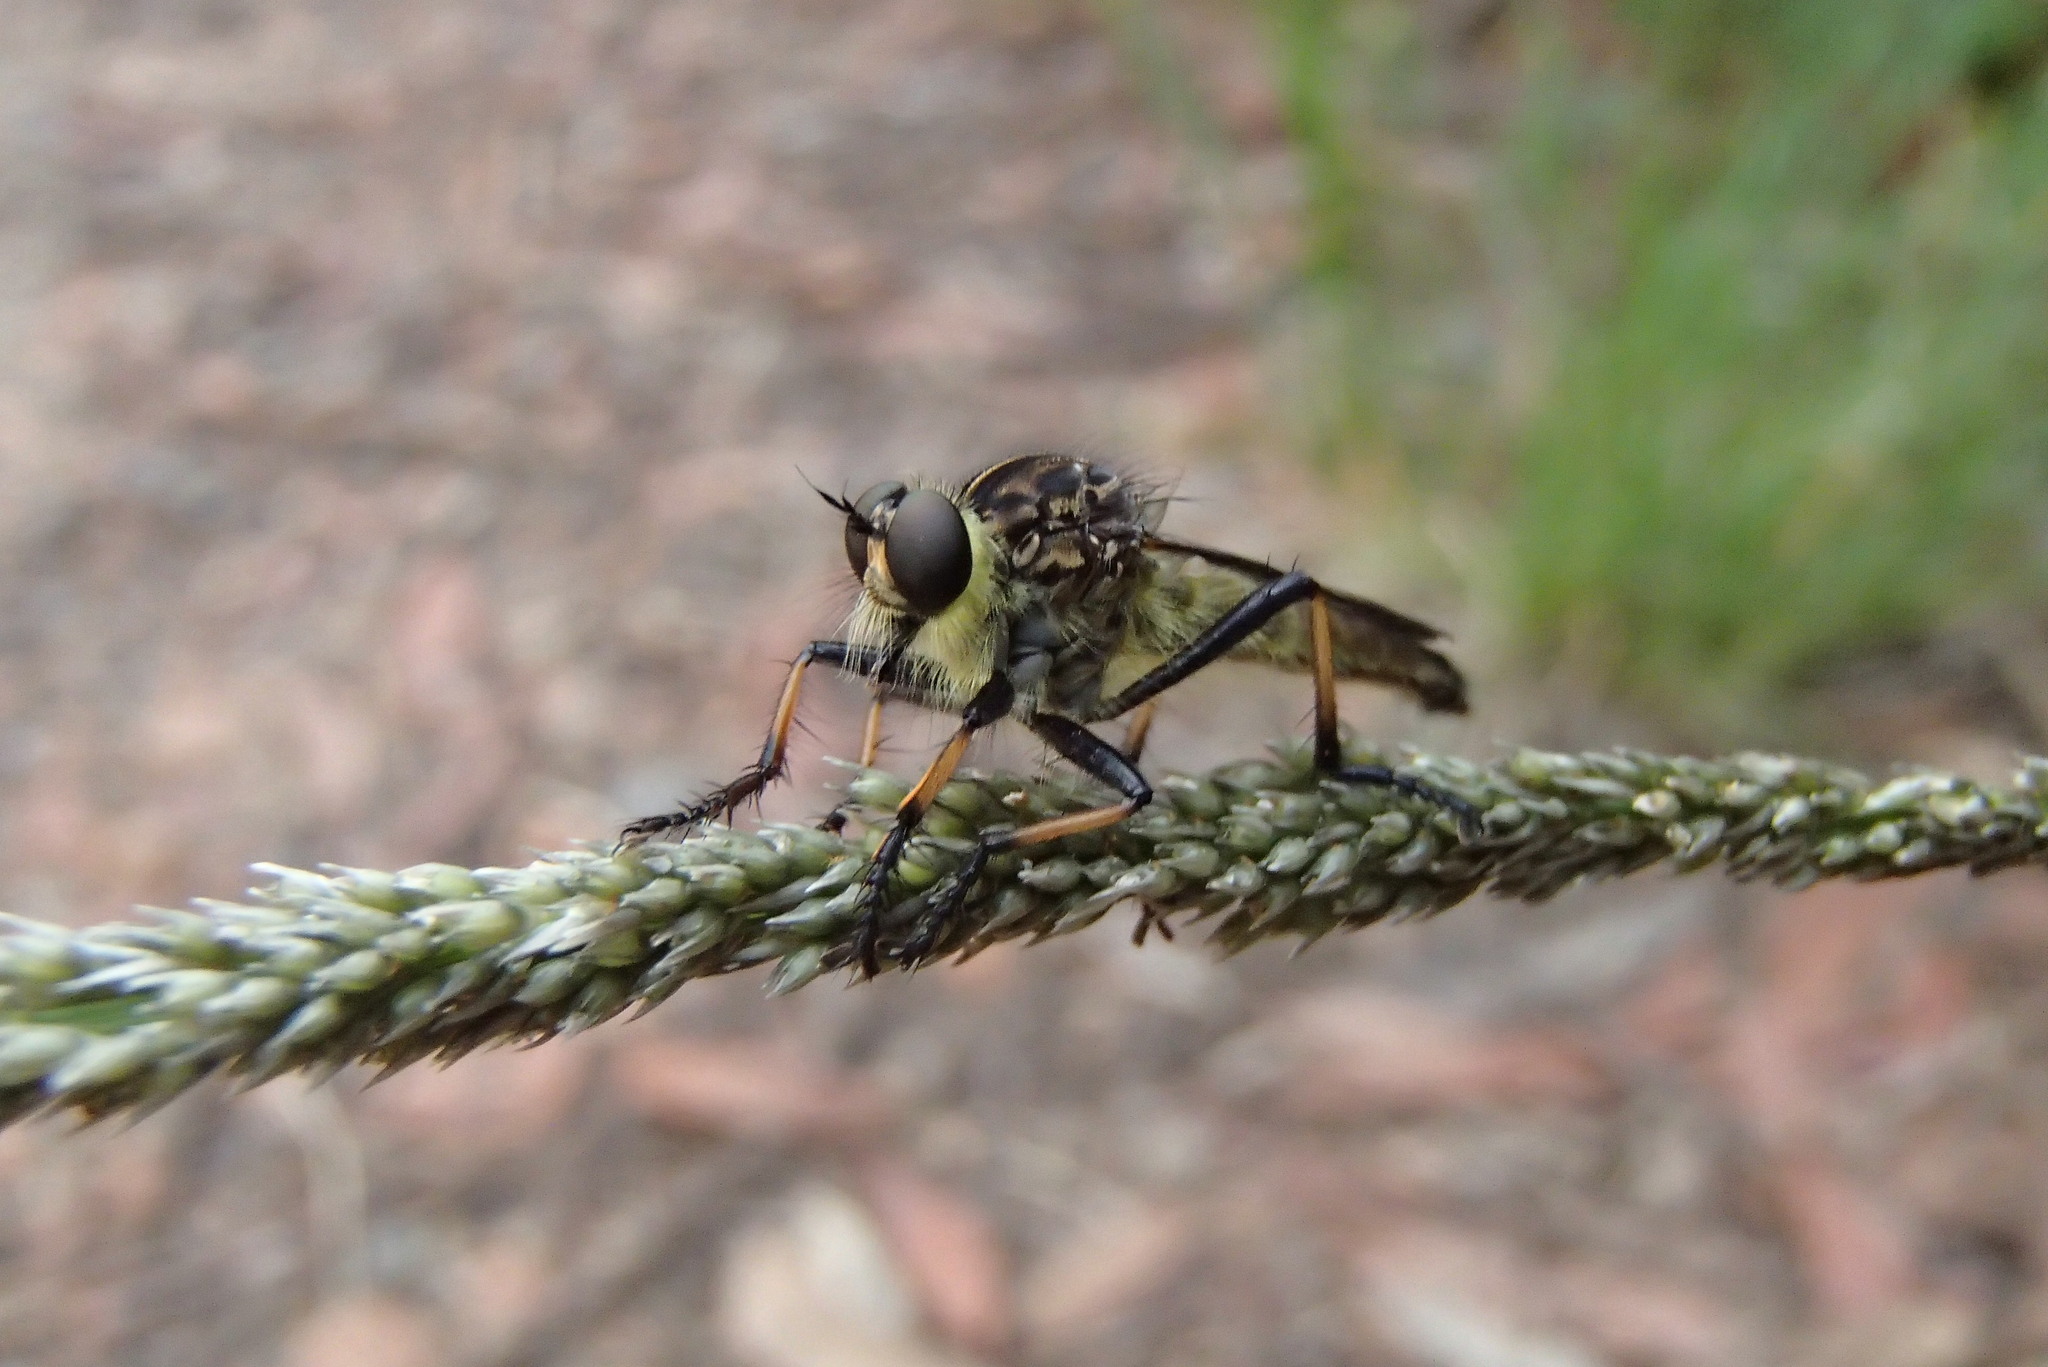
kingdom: Animalia
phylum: Arthropoda
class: Insecta
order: Diptera
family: Asilidae
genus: Zosteria
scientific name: Zosteria rosevillensis
